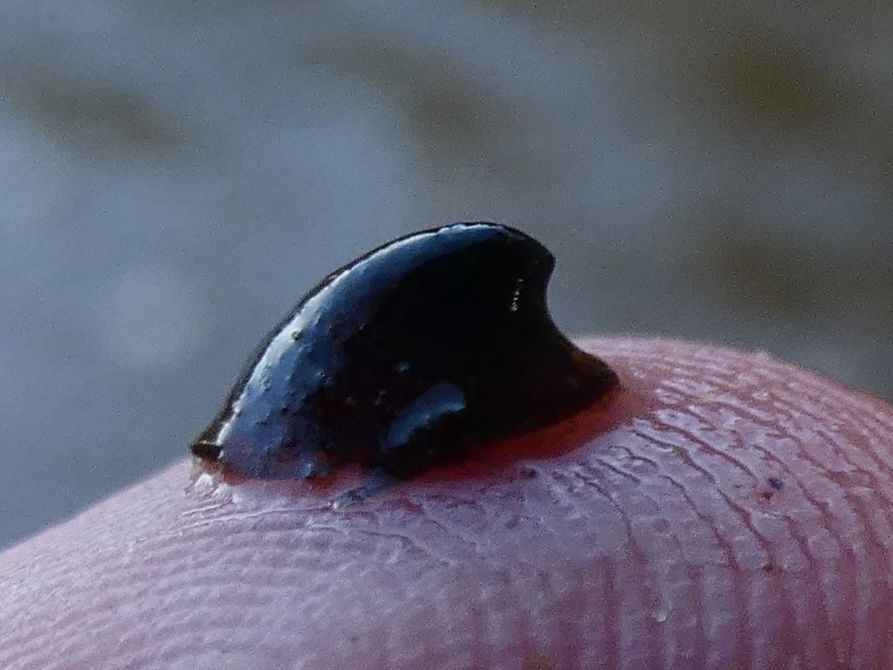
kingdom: Animalia
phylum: Mollusca
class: Gastropoda
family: Planorbidae
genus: Ancylus
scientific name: Ancylus fluviatilis
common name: River limpet
